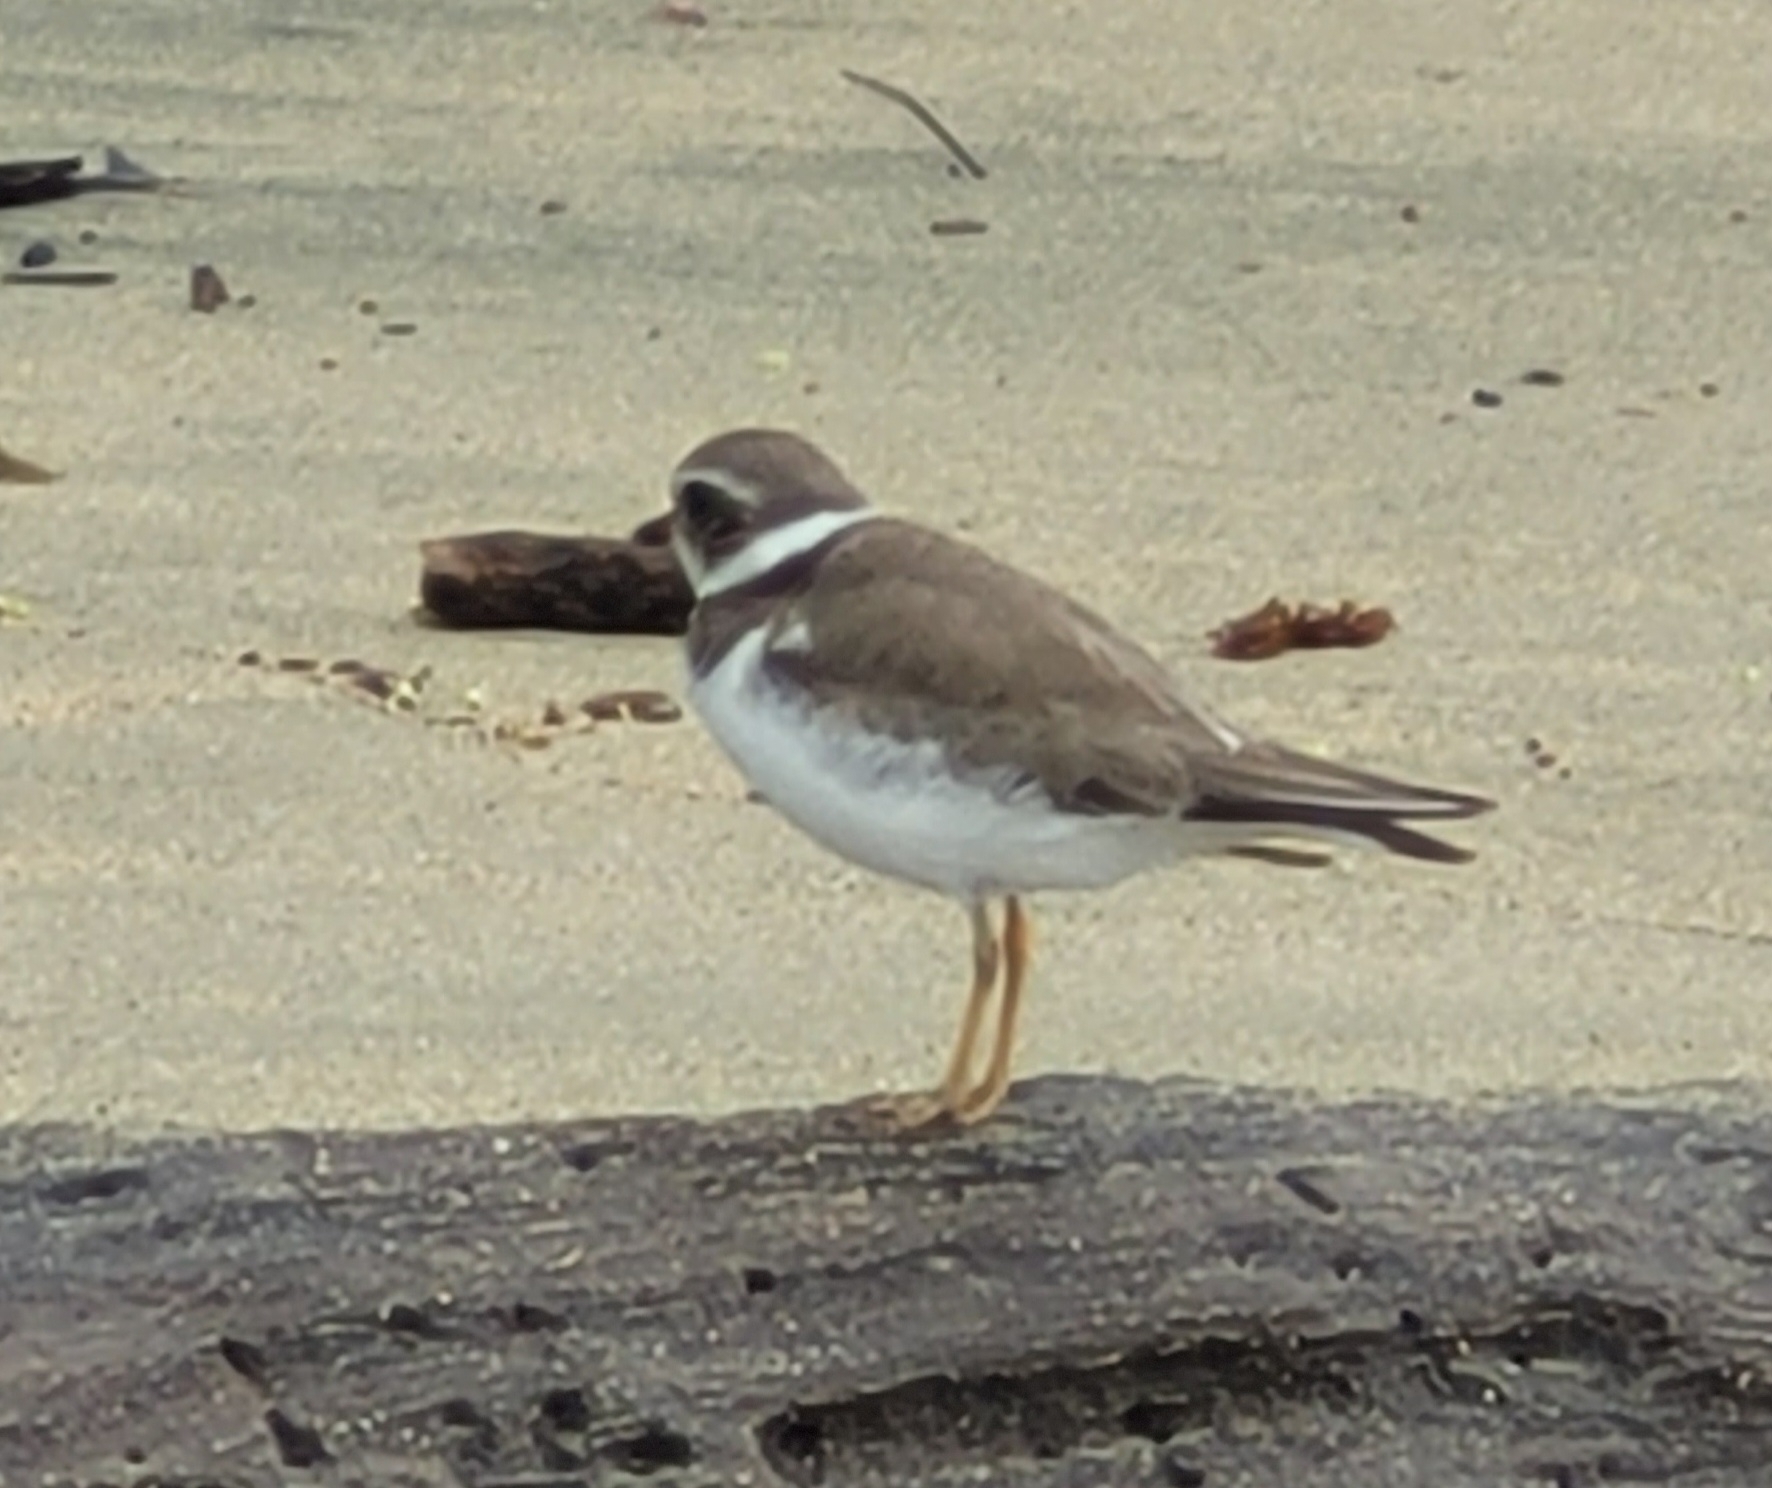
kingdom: Animalia
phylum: Chordata
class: Aves
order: Charadriiformes
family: Charadriidae
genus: Charadrius
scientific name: Charadrius semipalmatus
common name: Semipalmated plover
